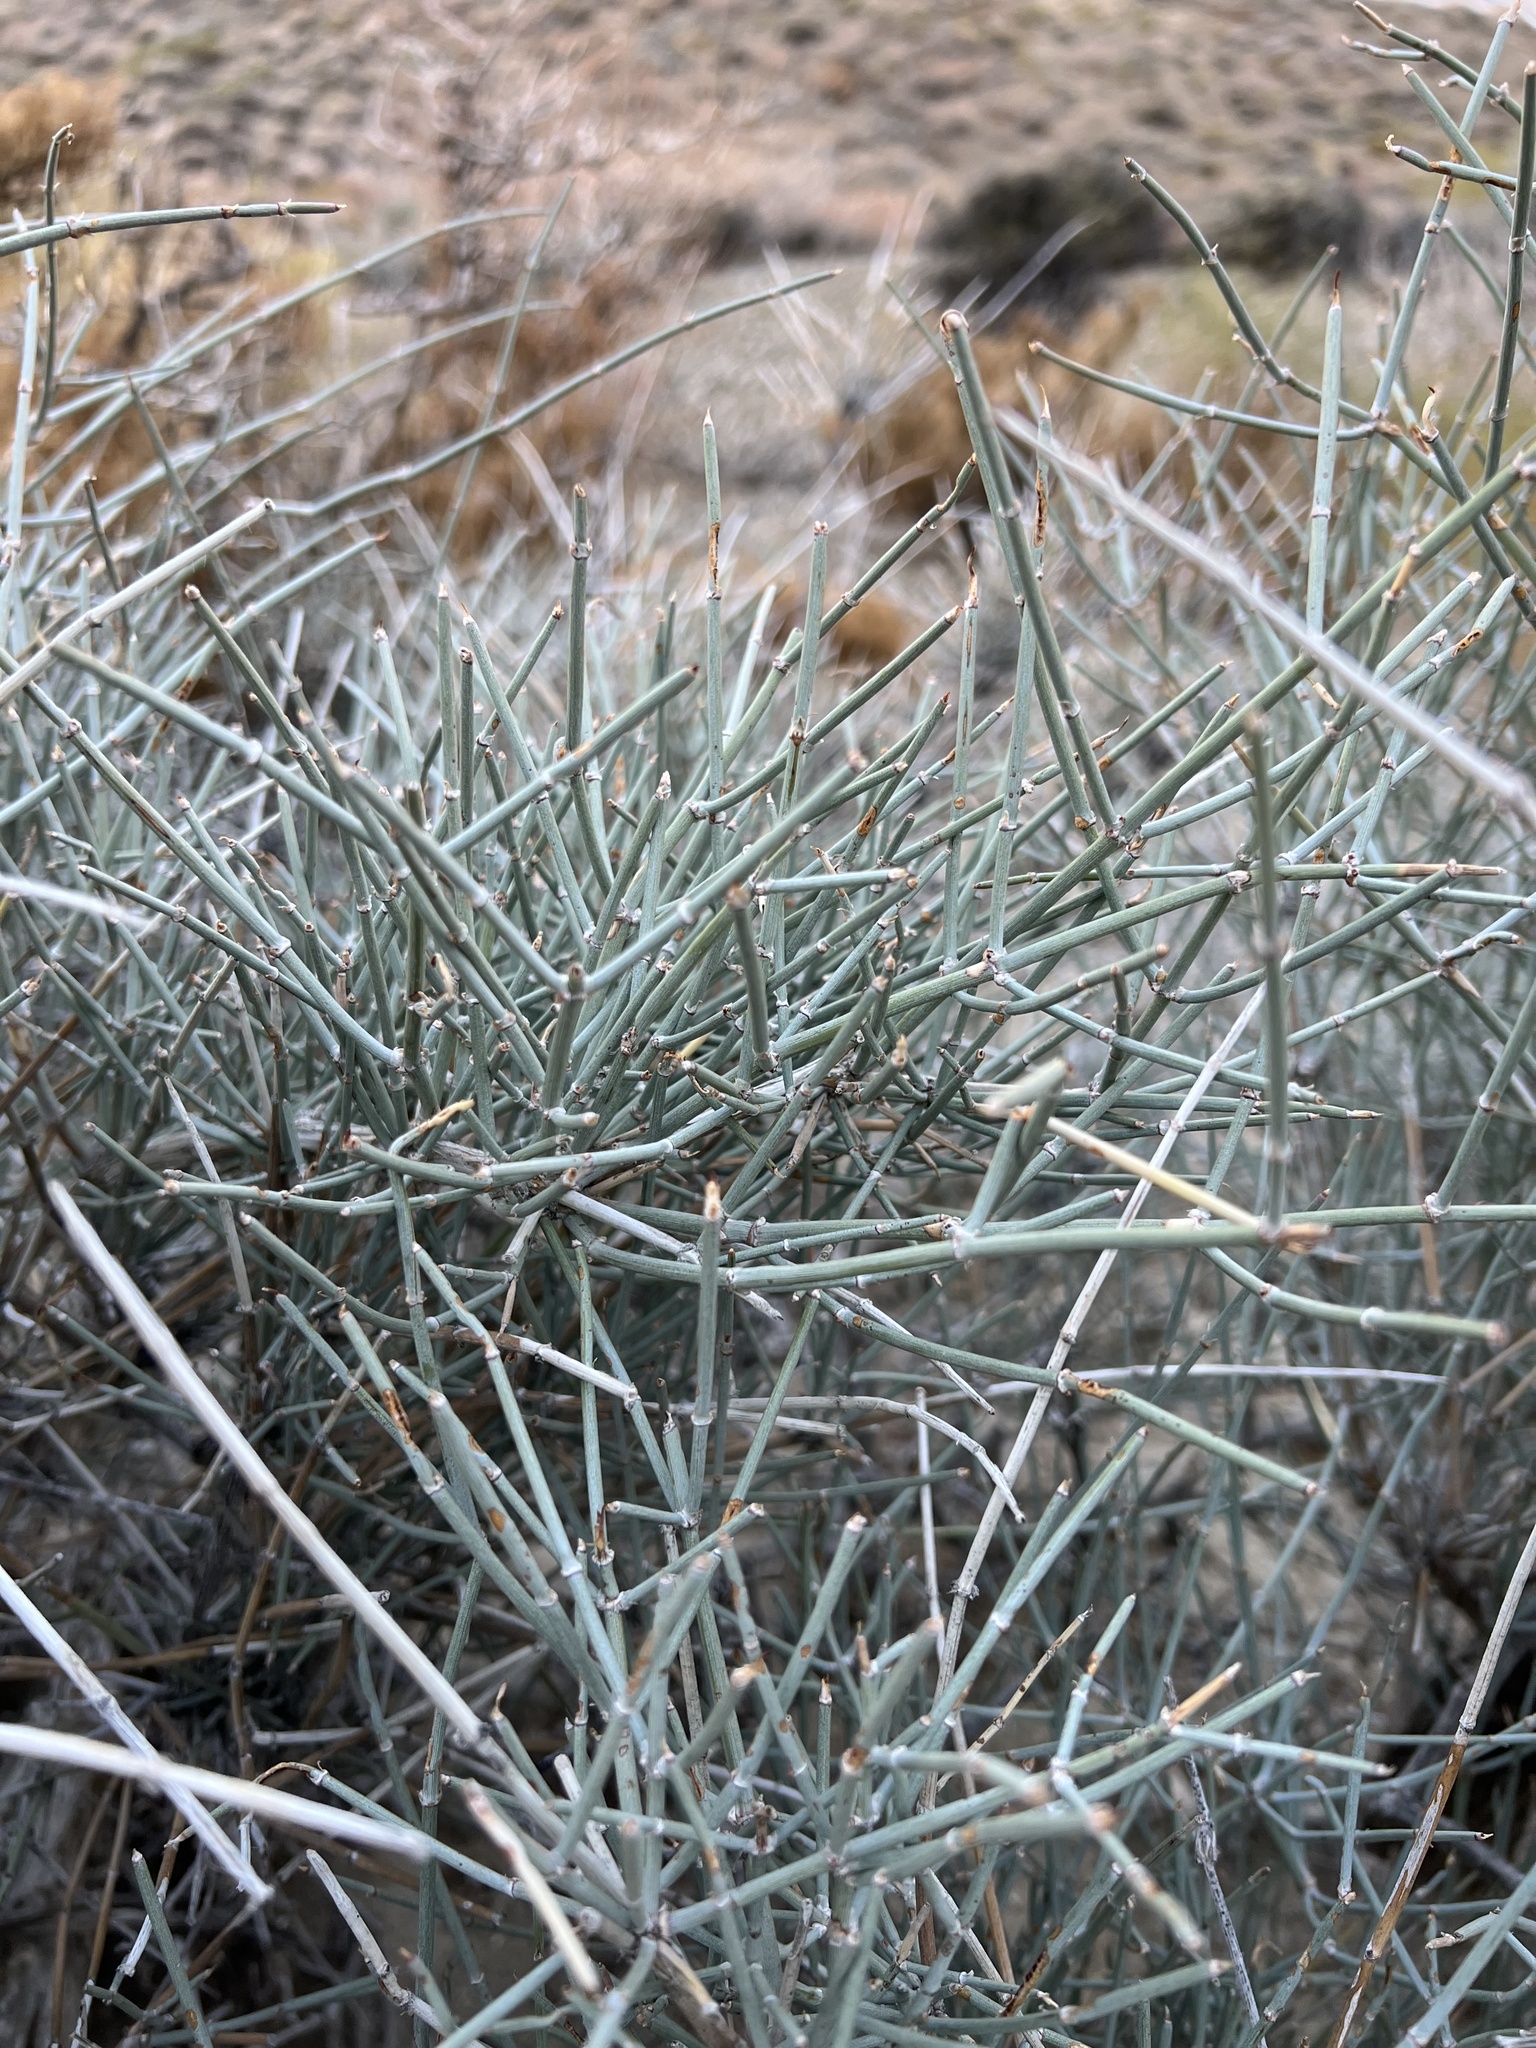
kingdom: Plantae
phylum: Tracheophyta
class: Gnetopsida
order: Ephedrales
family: Ephedraceae
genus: Ephedra
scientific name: Ephedra nevadensis
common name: Gray ephedra
